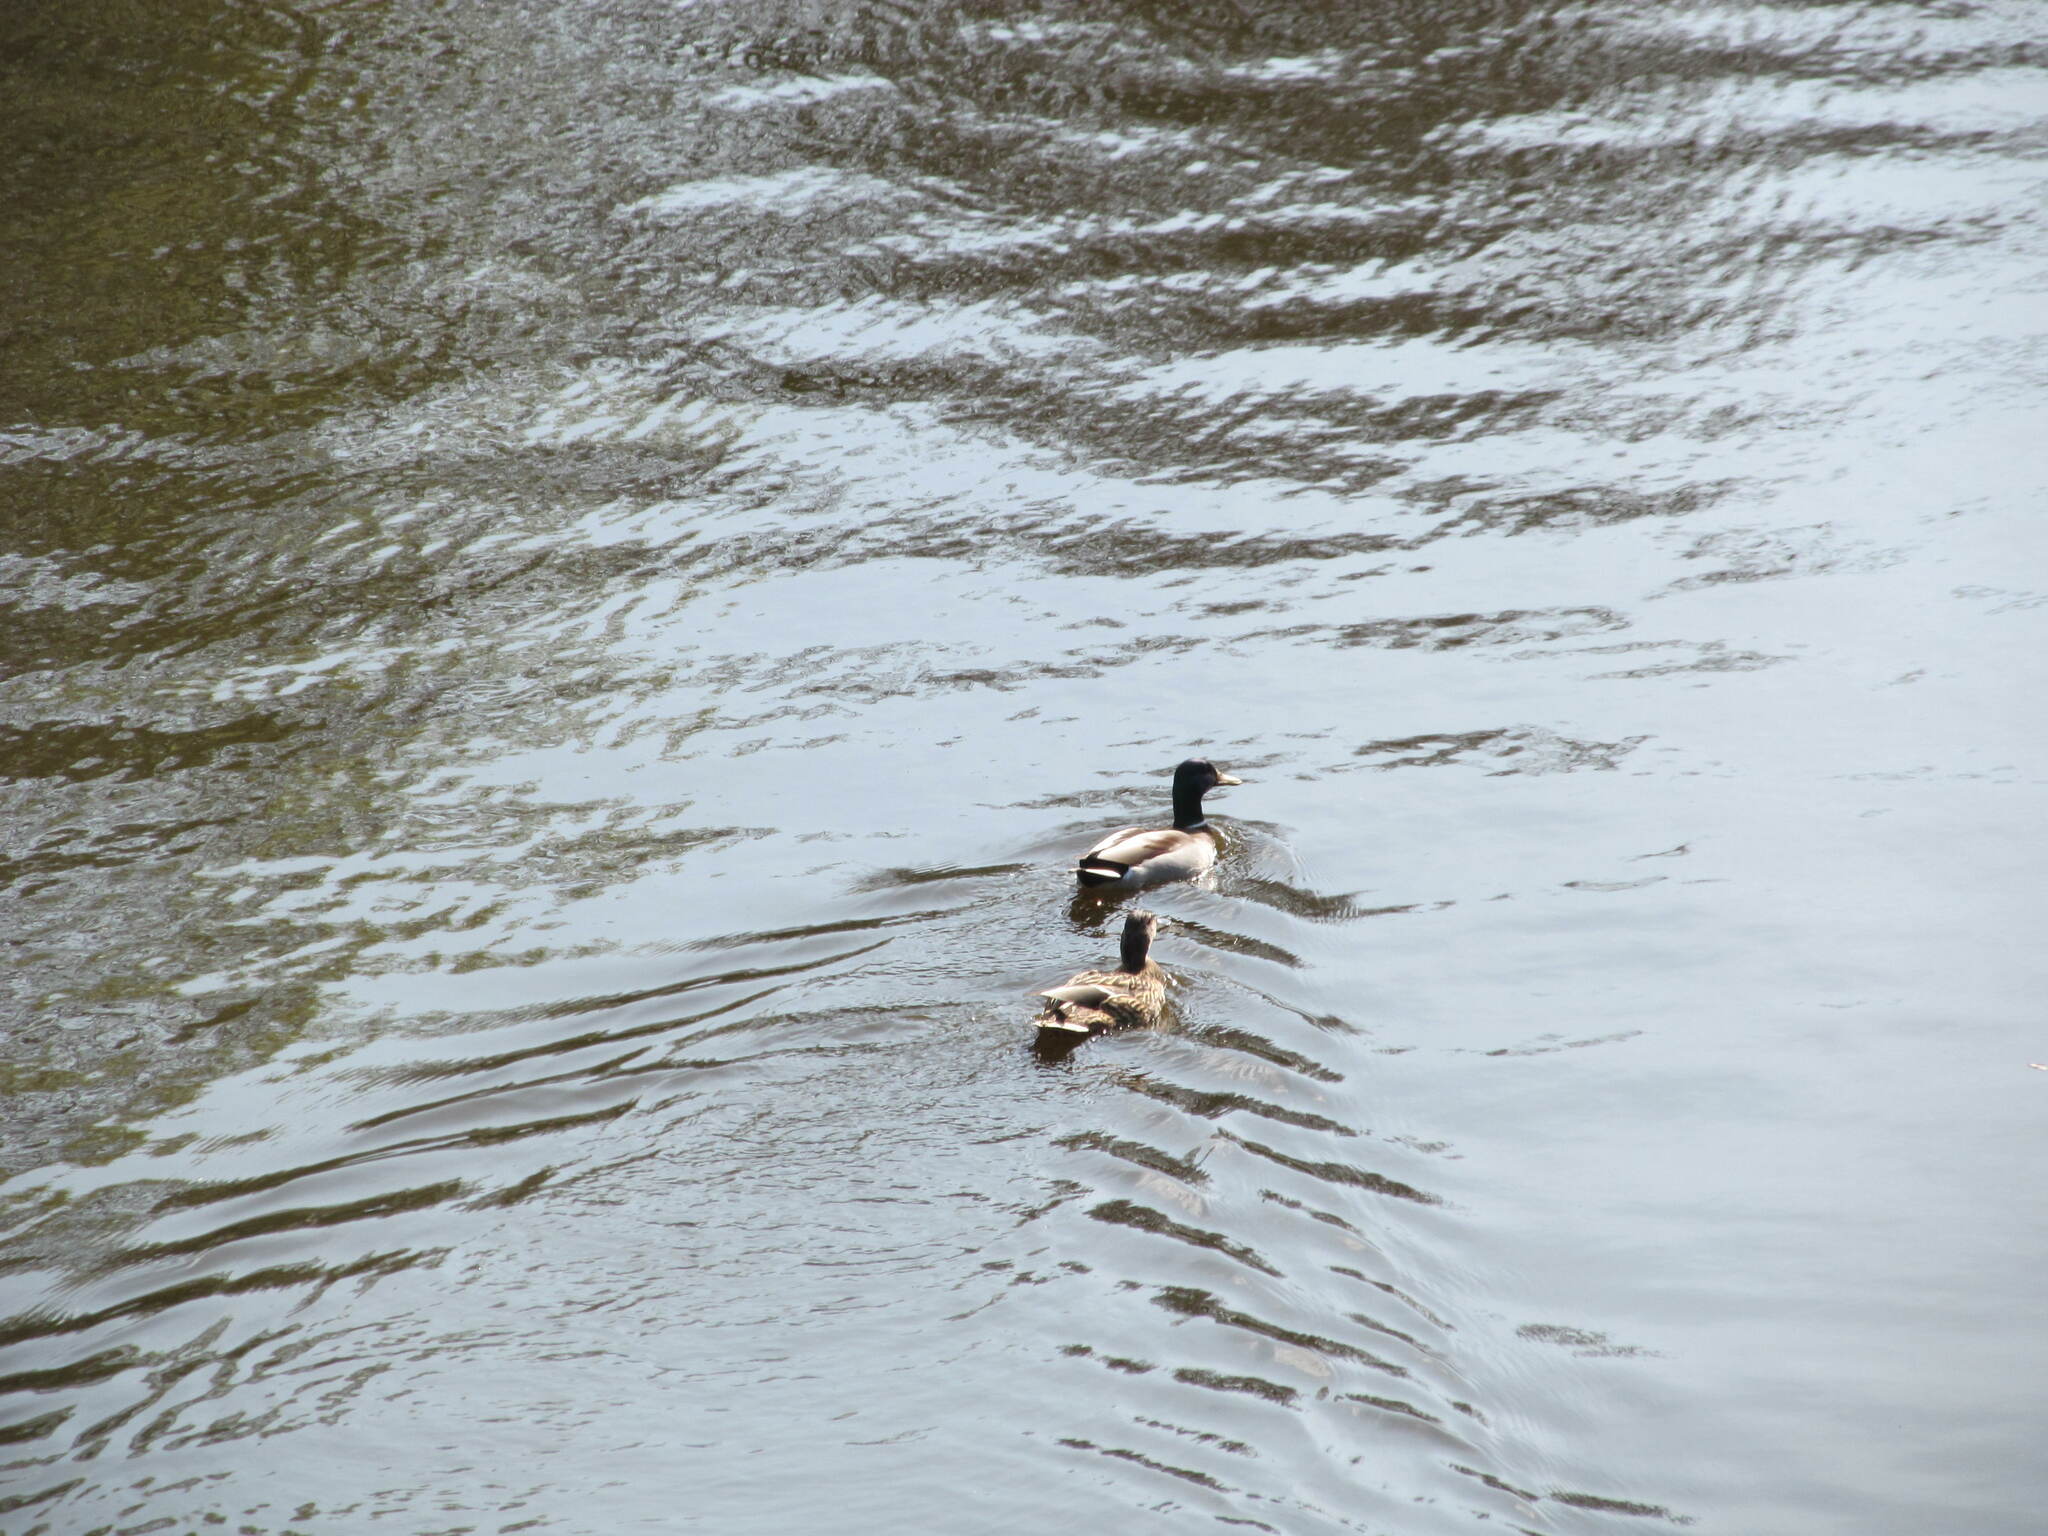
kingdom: Animalia
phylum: Chordata
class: Aves
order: Anseriformes
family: Anatidae
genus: Anas
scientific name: Anas platyrhynchos
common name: Mallard
